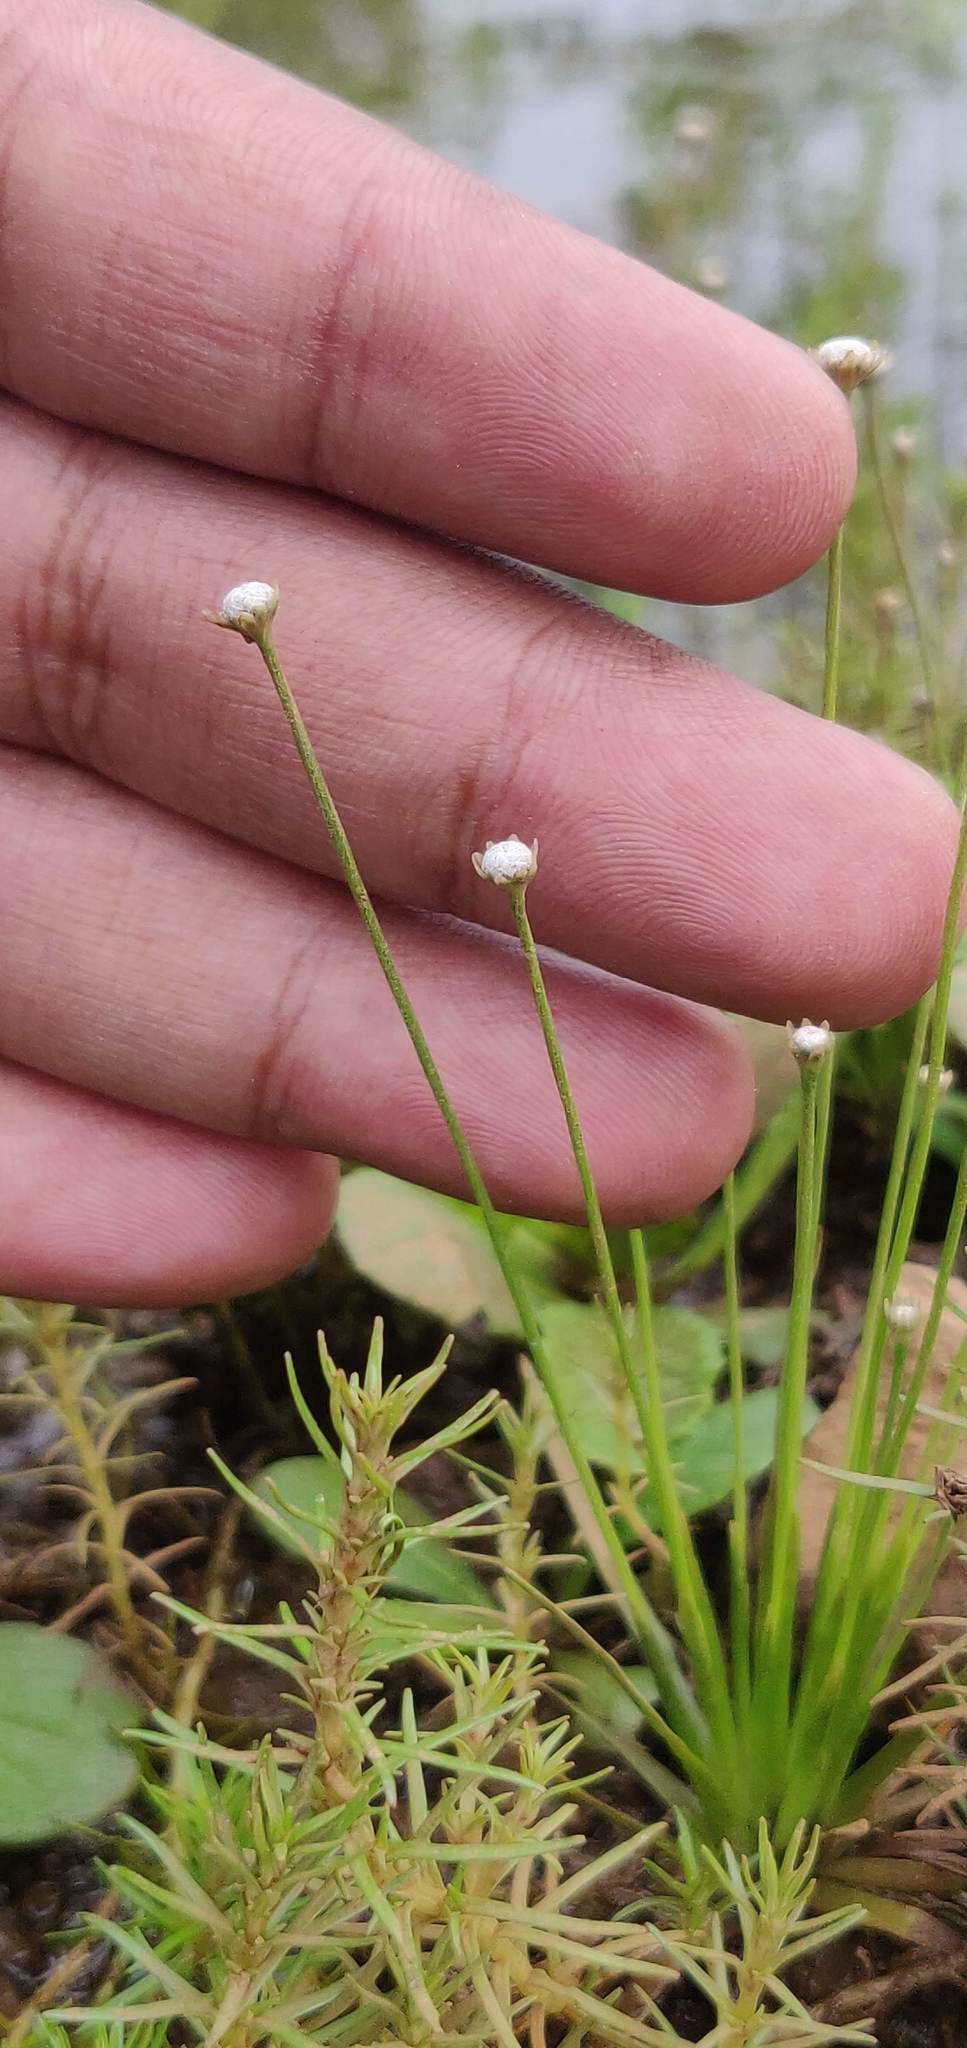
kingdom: Plantae
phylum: Tracheophyta
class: Liliopsida
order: Poales
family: Eriocaulaceae
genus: Eriocaulon
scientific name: Eriocaulon heterolepis
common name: Buttonhead pipewort
